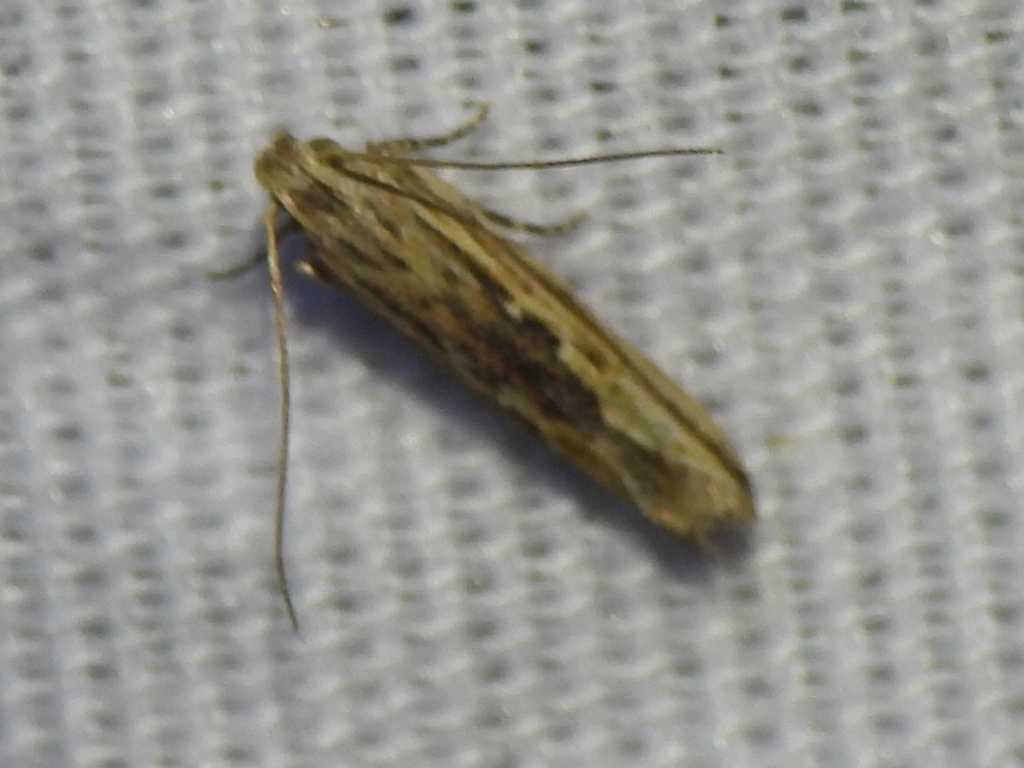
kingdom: Animalia
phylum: Arthropoda
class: Insecta
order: Lepidoptera
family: Gelechiidae
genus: Symmetrischema
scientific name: Symmetrischema striatella
